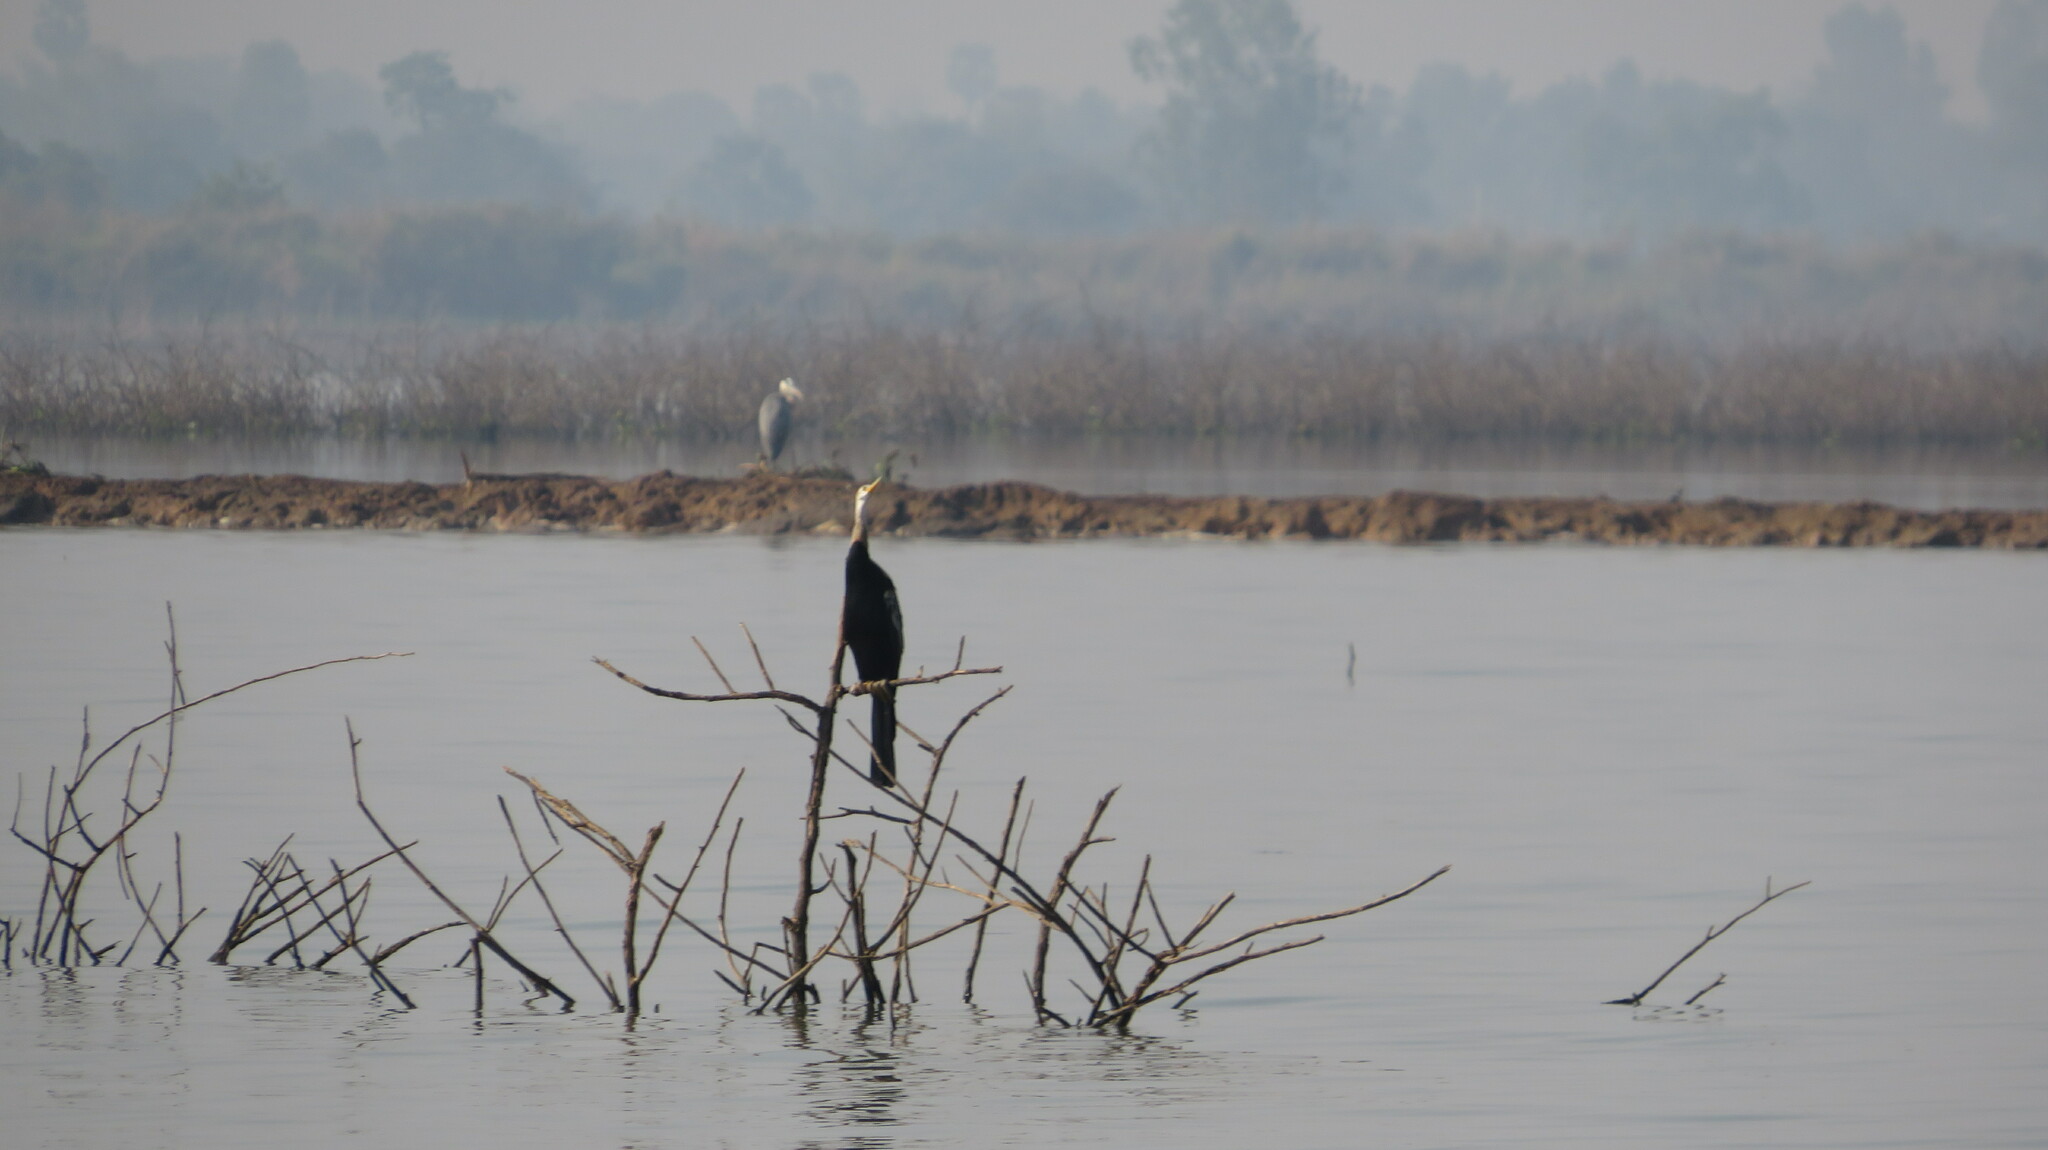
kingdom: Animalia
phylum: Chordata
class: Aves
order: Suliformes
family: Anhingidae
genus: Anhinga
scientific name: Anhinga melanogaster
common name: Oriental darter
